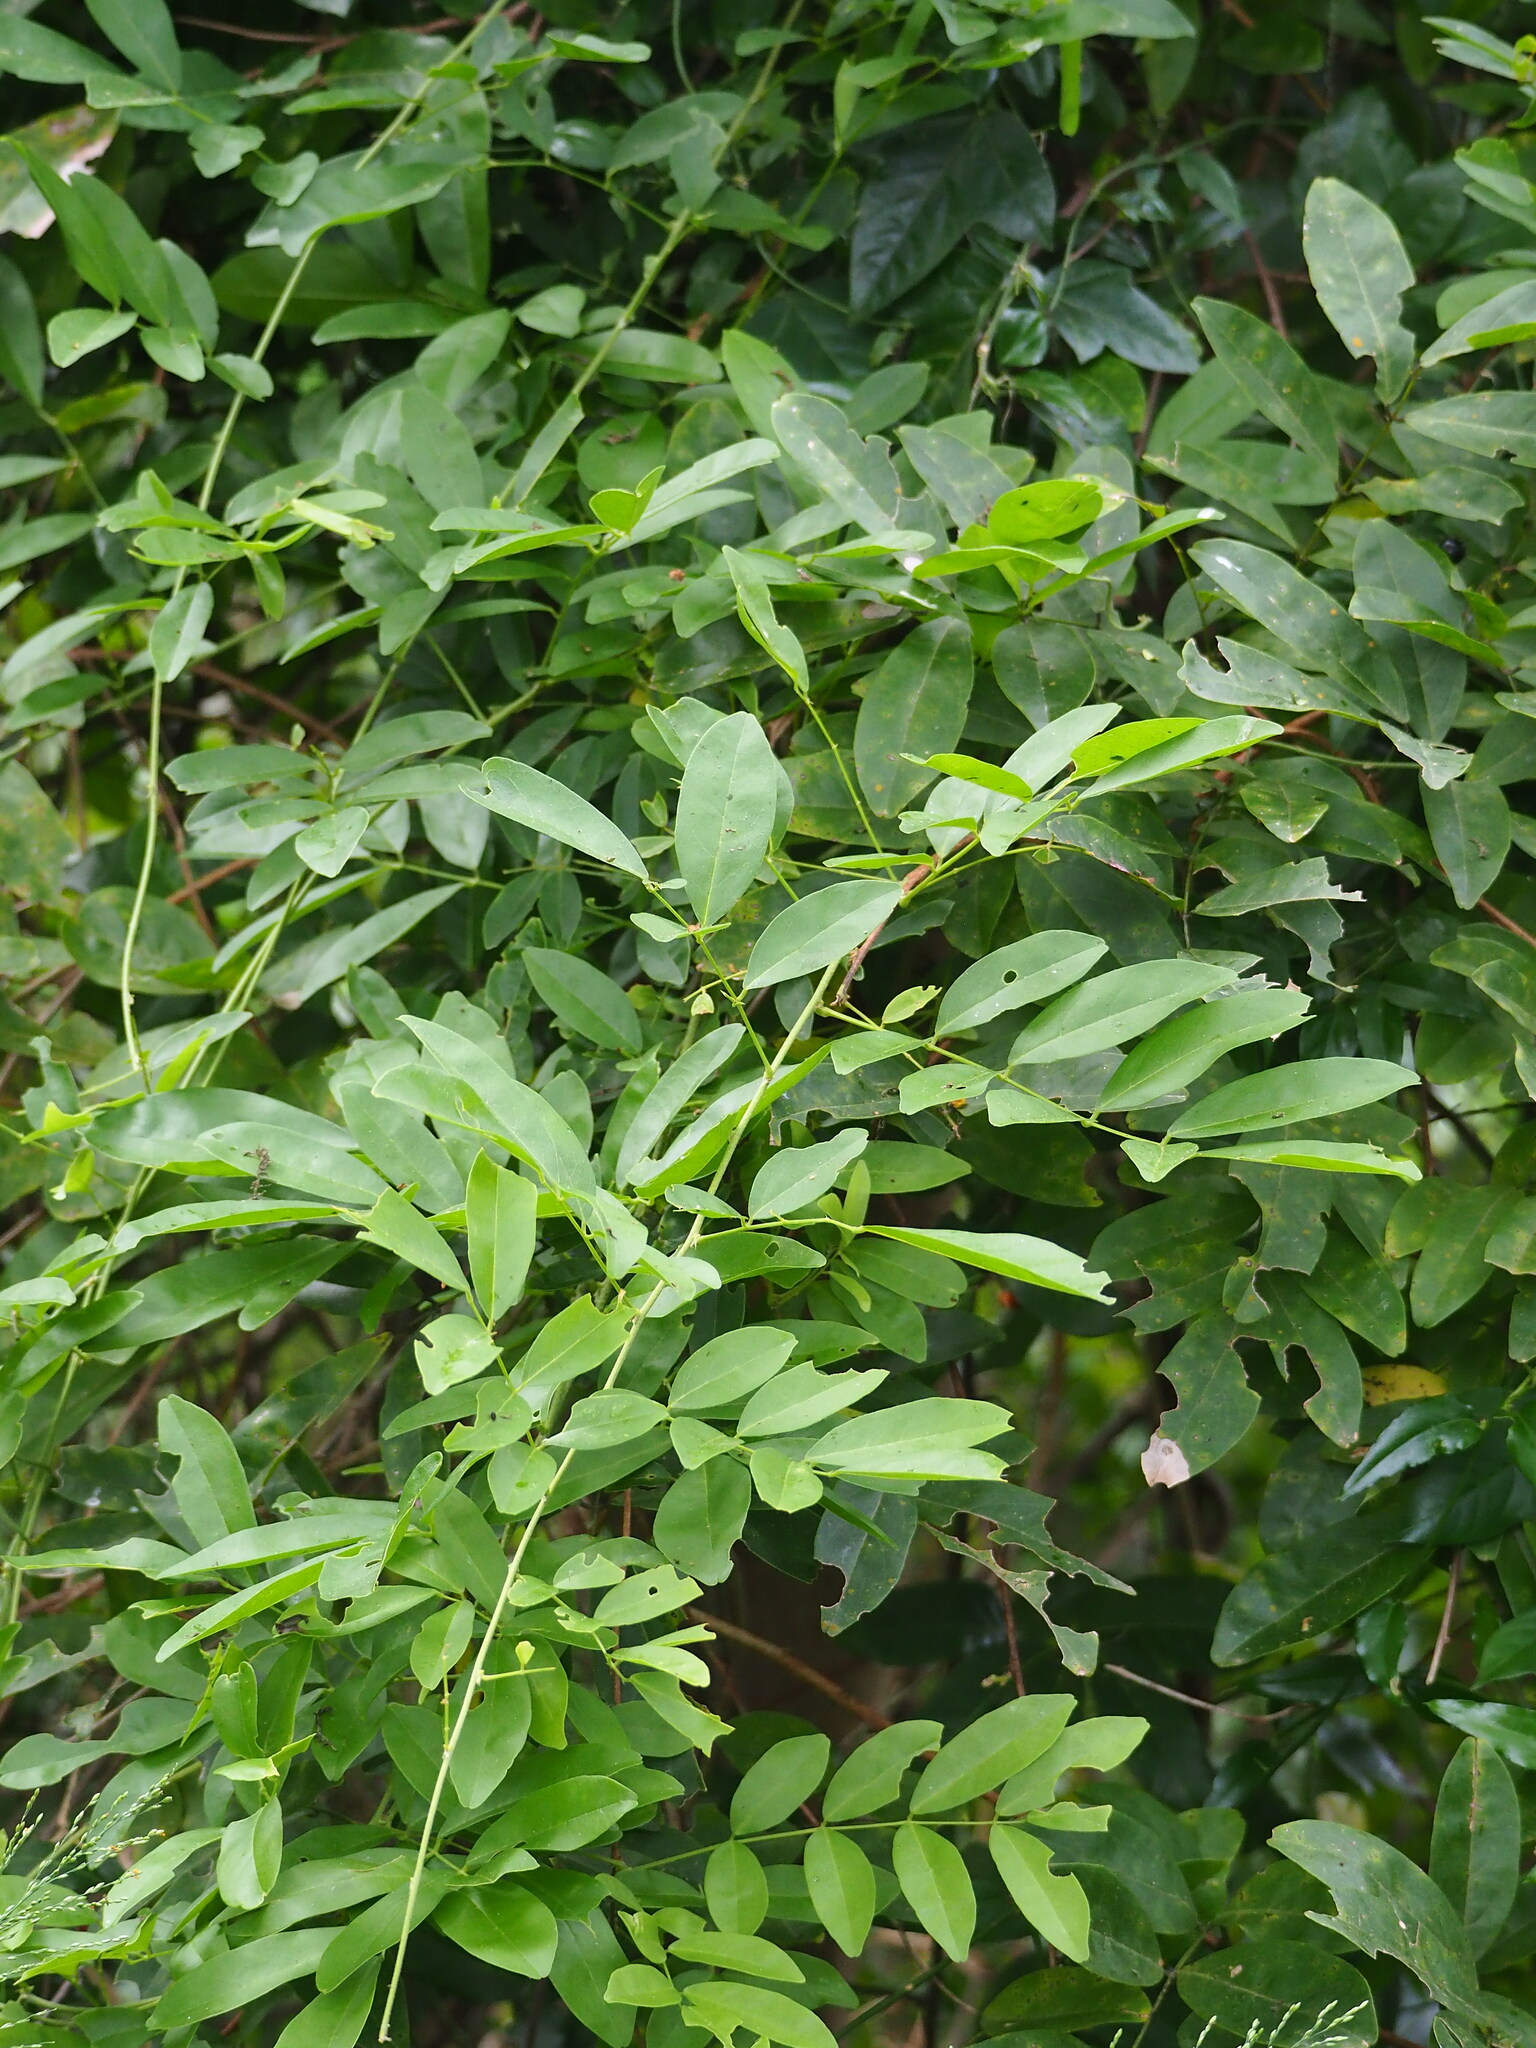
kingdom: Plantae
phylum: Tracheophyta
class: Magnoliopsida
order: Fabales
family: Fabaceae
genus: Wisteriopsis
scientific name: Wisteriopsis reticulata
